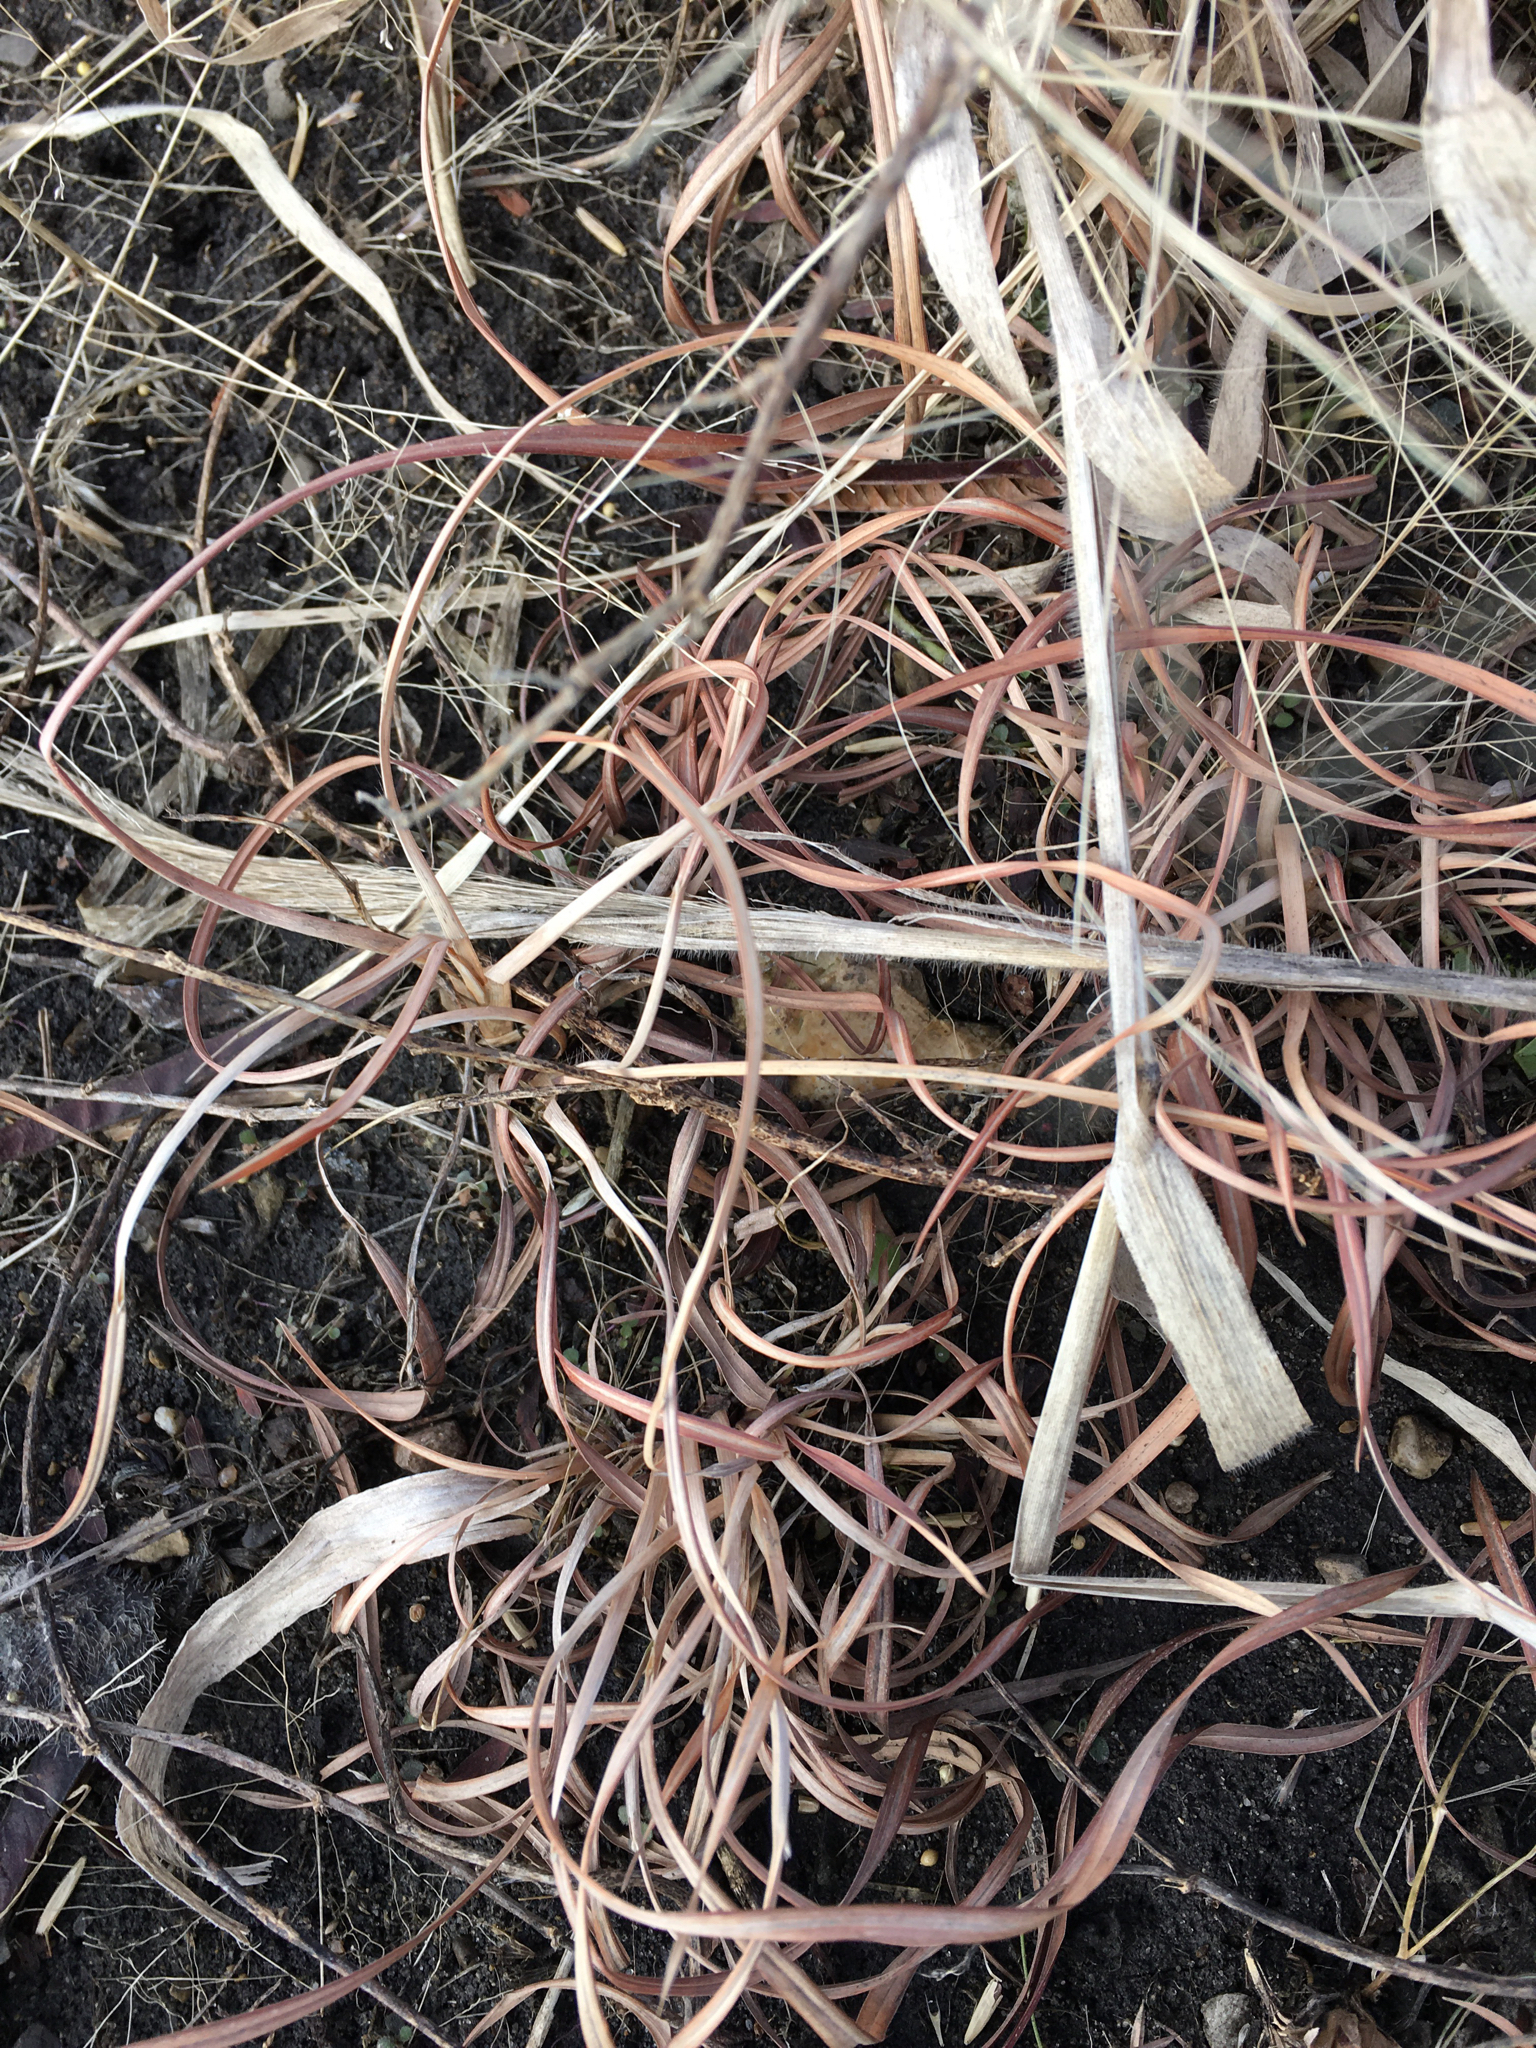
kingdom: Plantae
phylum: Tracheophyta
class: Liliopsida
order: Poales
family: Poaceae
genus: Schizachyrium
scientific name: Schizachyrium scoparium
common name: Little bluestem
